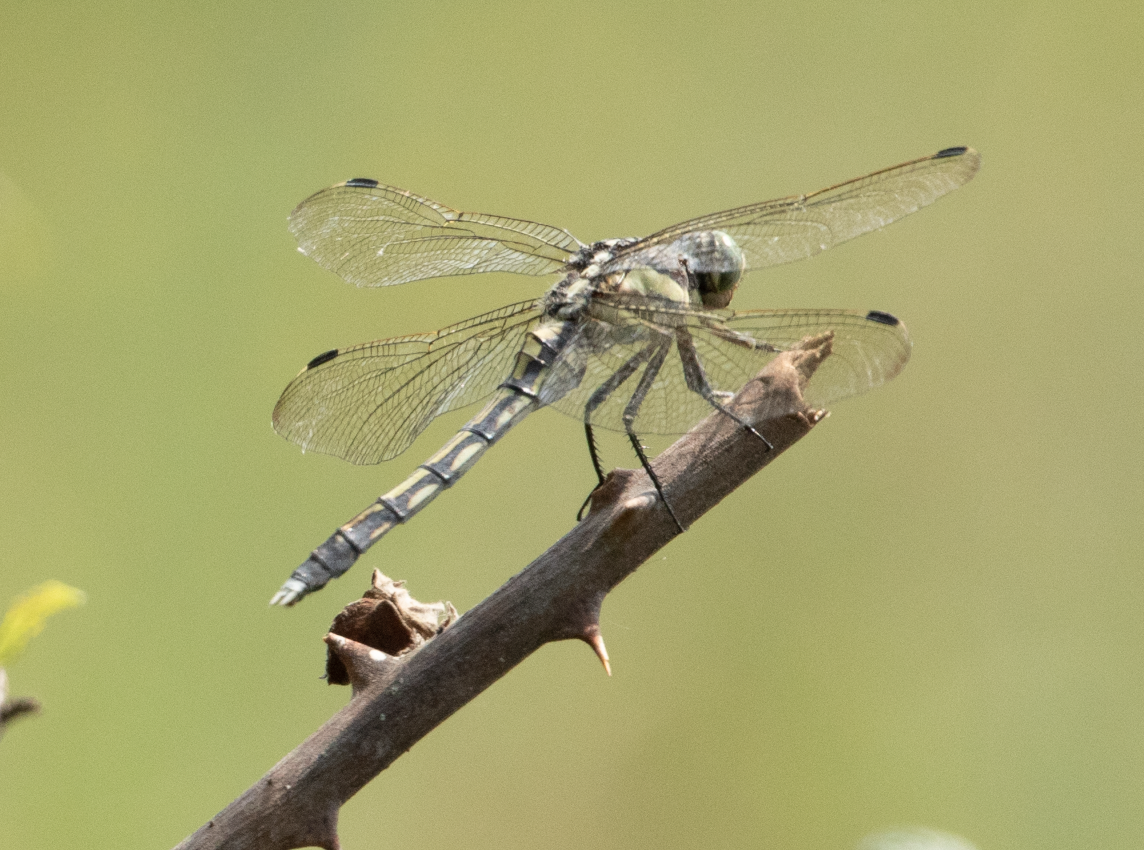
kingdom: Animalia
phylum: Arthropoda
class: Insecta
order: Odonata
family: Libellulidae
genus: Orthetrum
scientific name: Orthetrum albistylum
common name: White-tailed skimmer
